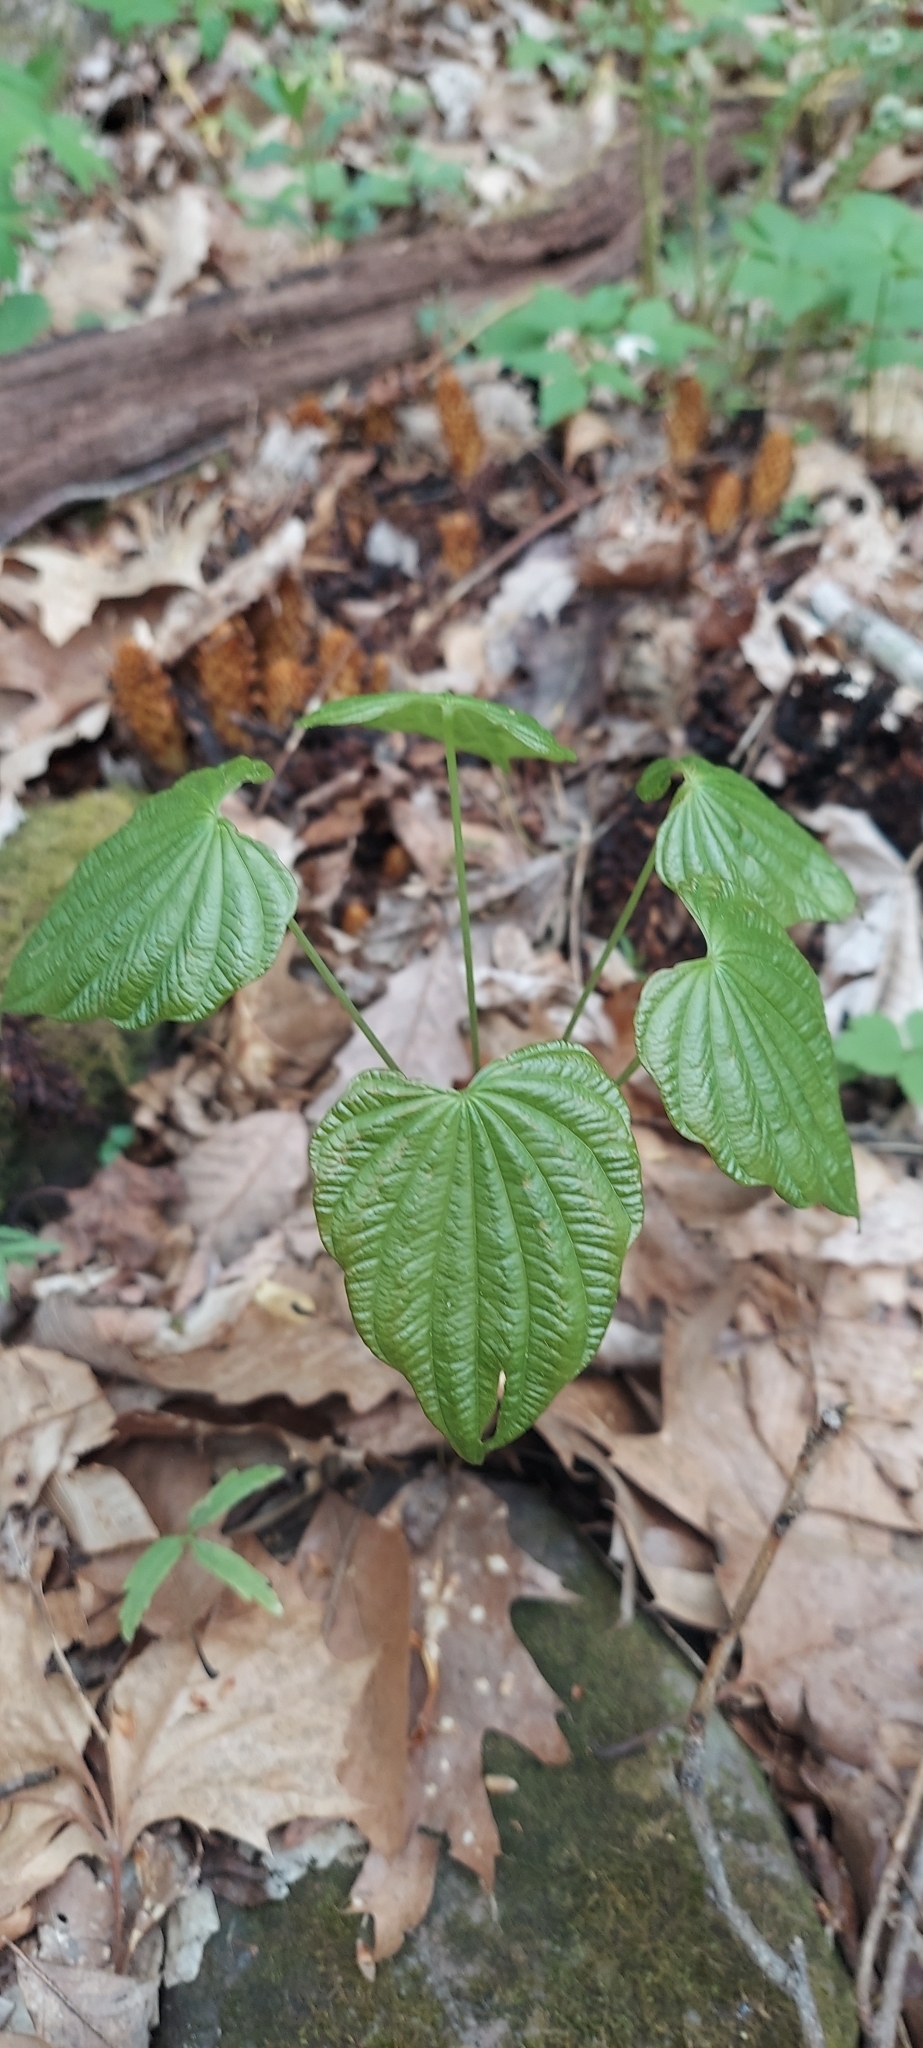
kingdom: Plantae
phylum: Tracheophyta
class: Liliopsida
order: Dioscoreales
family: Dioscoreaceae
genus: Dioscorea
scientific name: Dioscorea villosa
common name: Wild yam
